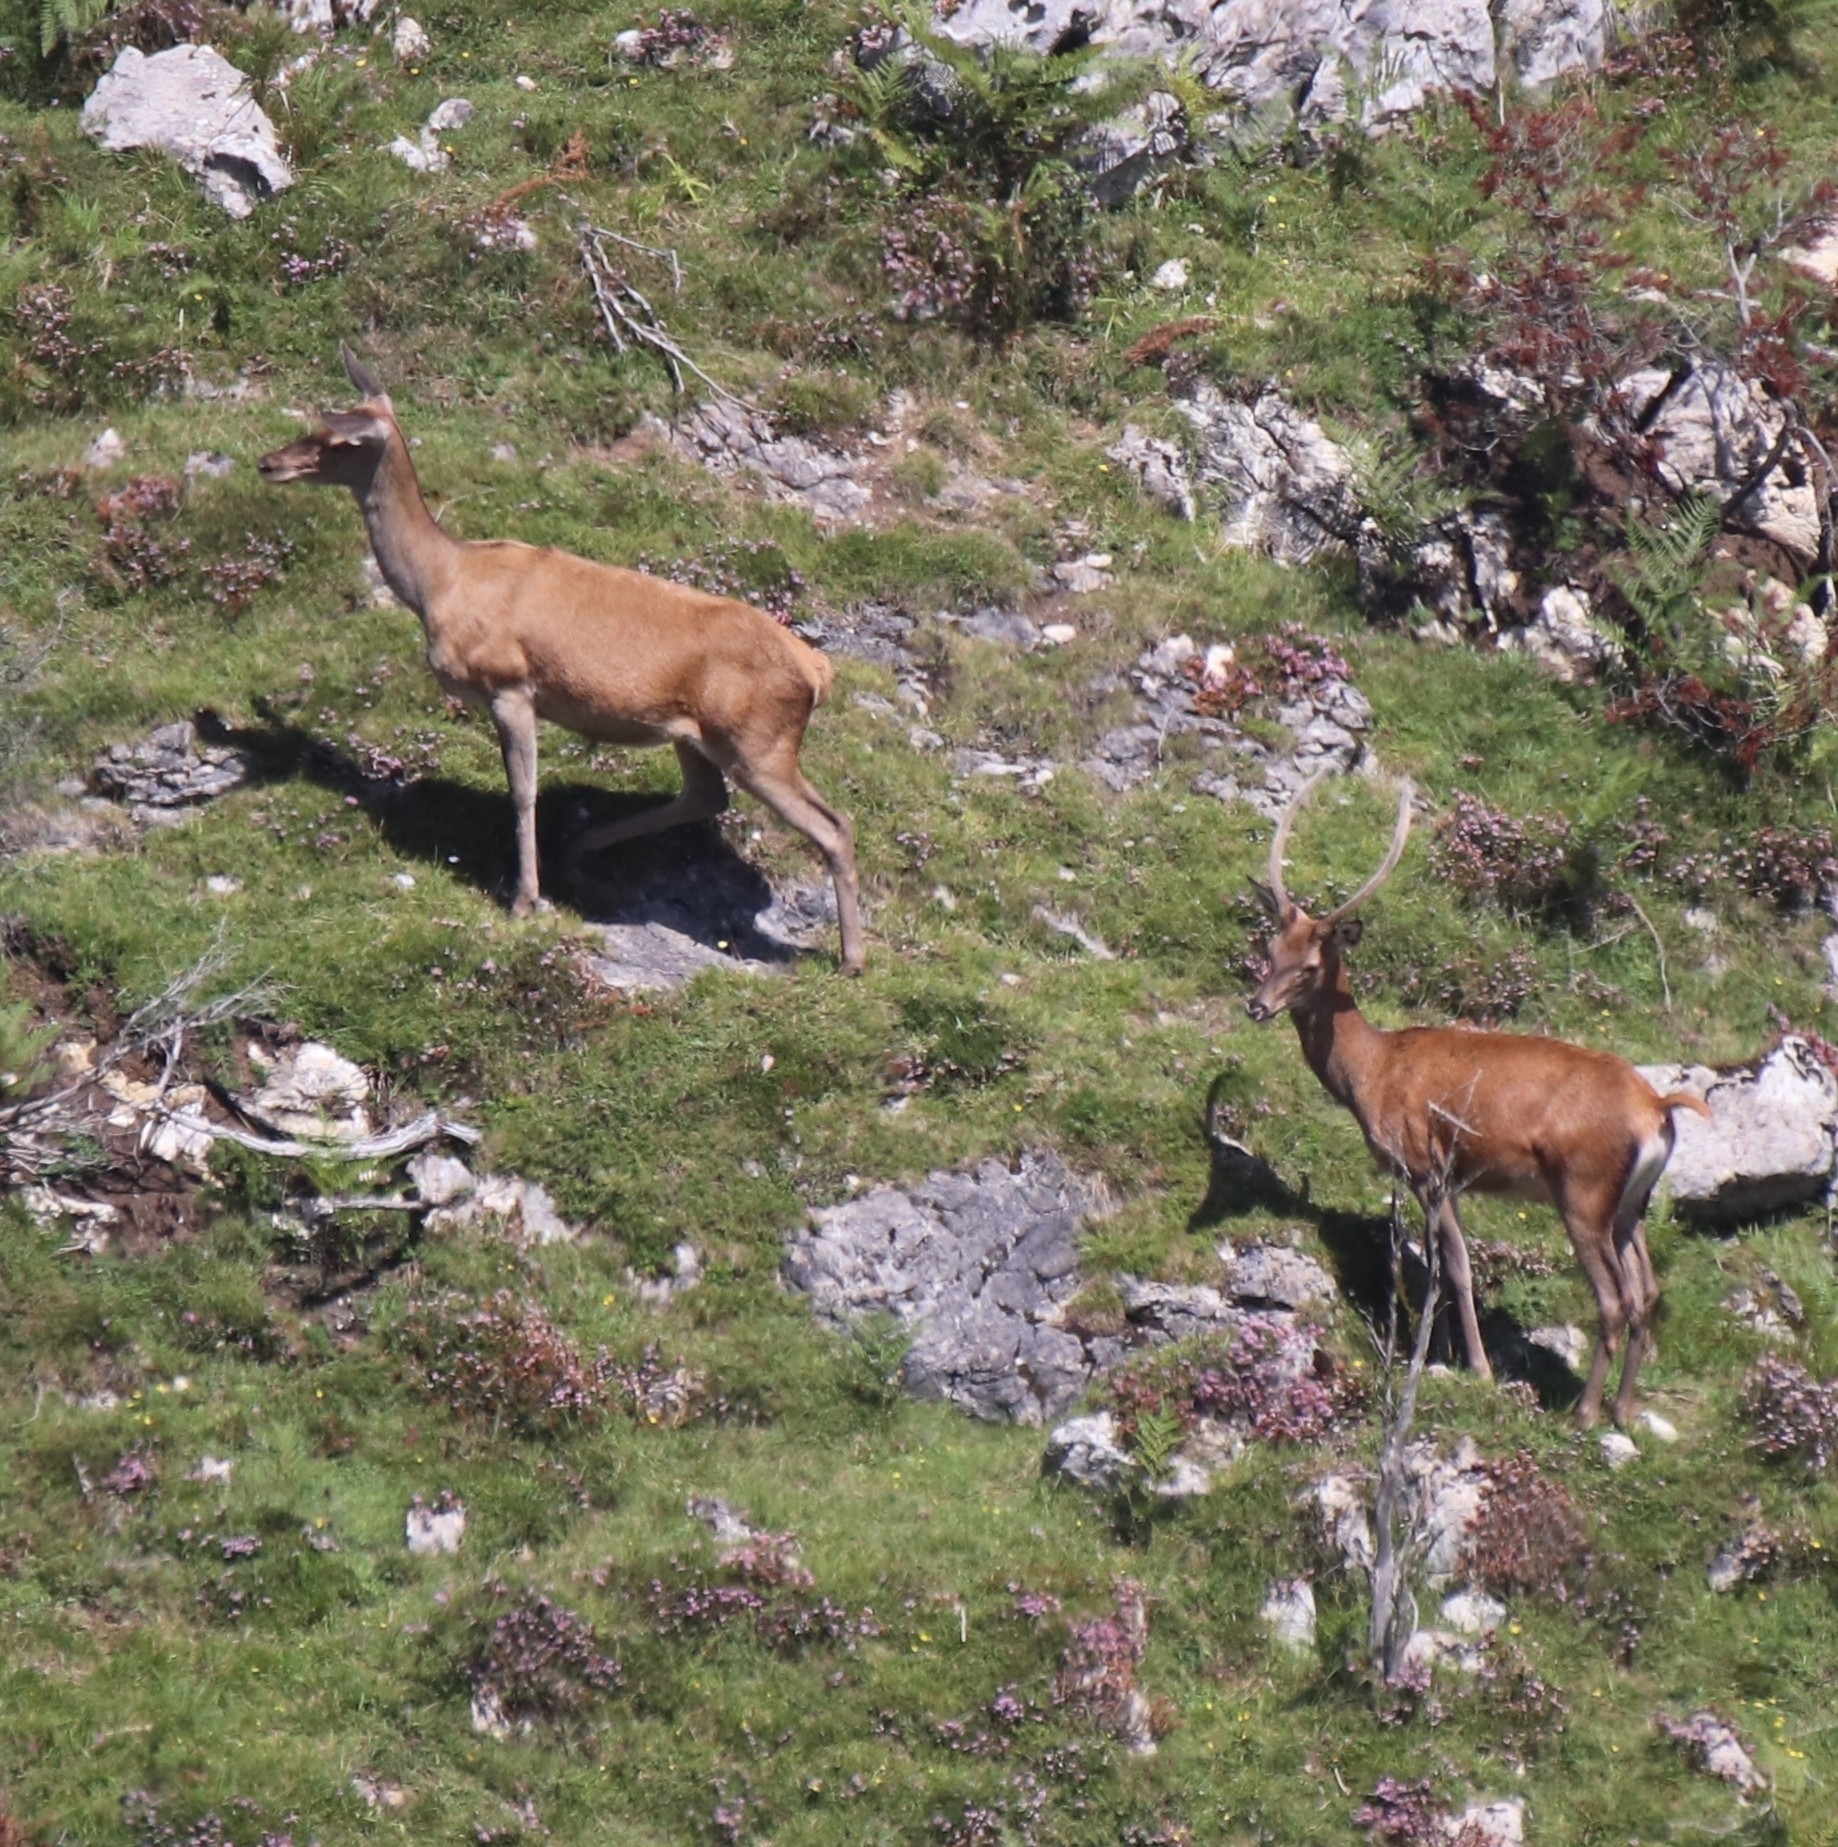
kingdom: Animalia
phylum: Chordata
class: Mammalia
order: Artiodactyla
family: Cervidae
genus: Cervus
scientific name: Cervus elaphus
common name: Red deer
